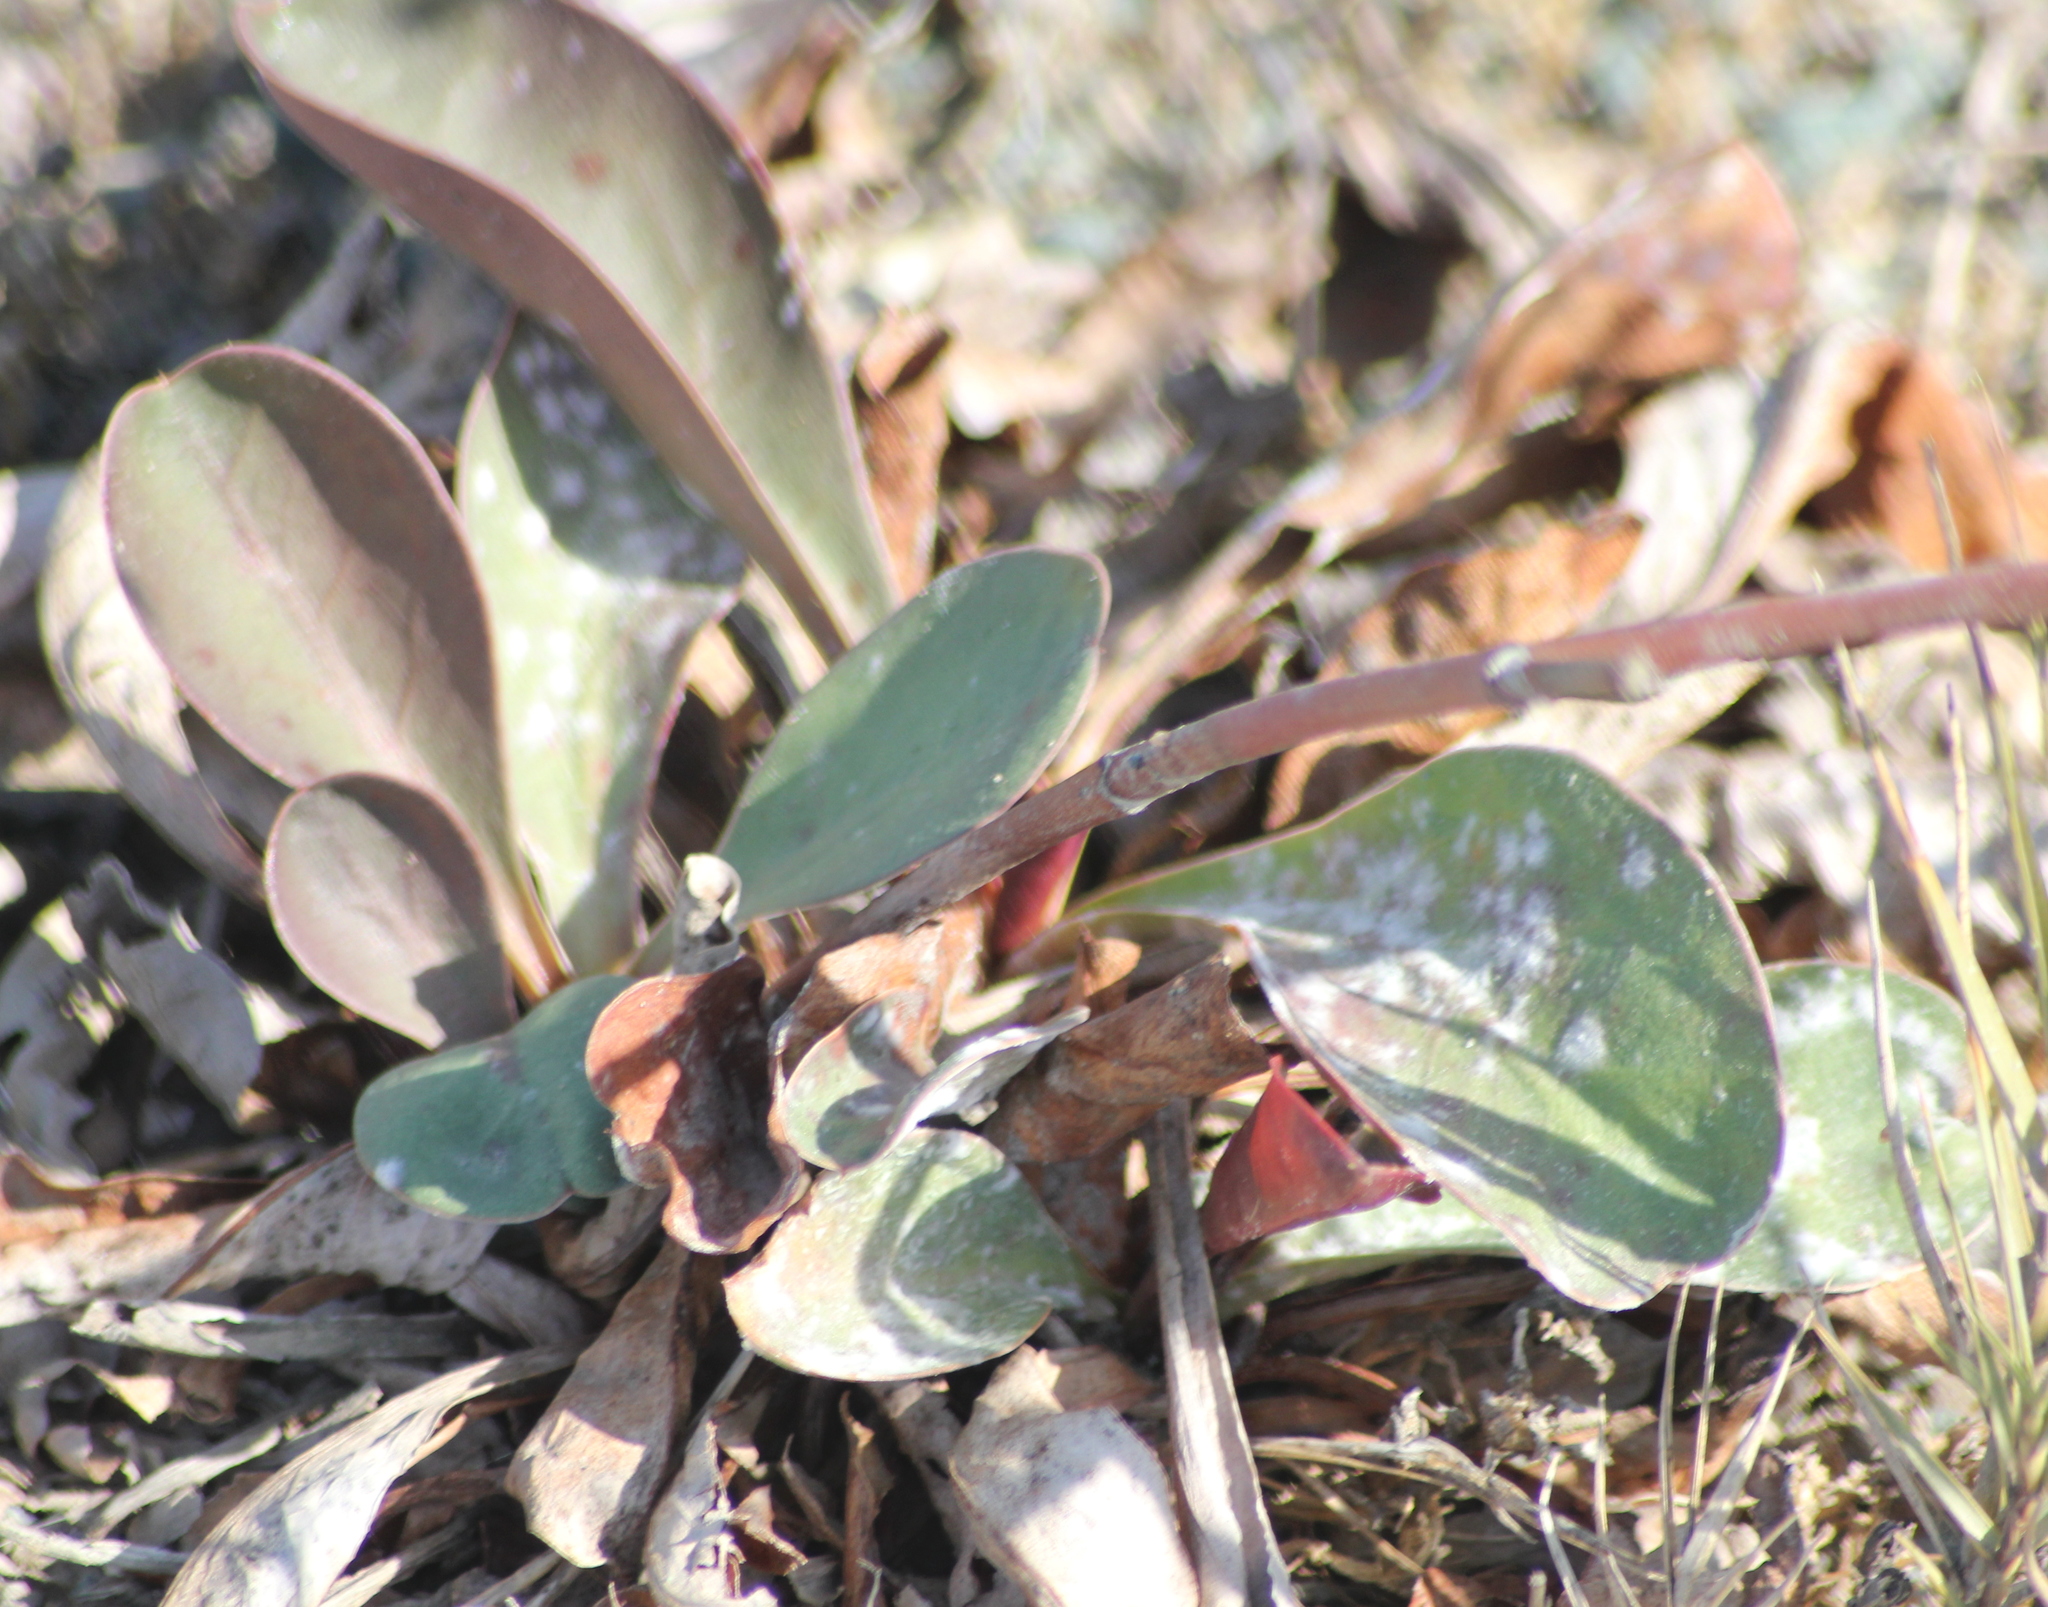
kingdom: Plantae
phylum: Tracheophyta
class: Magnoliopsida
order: Caryophyllales
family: Plumbaginaceae
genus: Limonium
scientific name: Limonium californicum
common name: Marsh-rosemary
